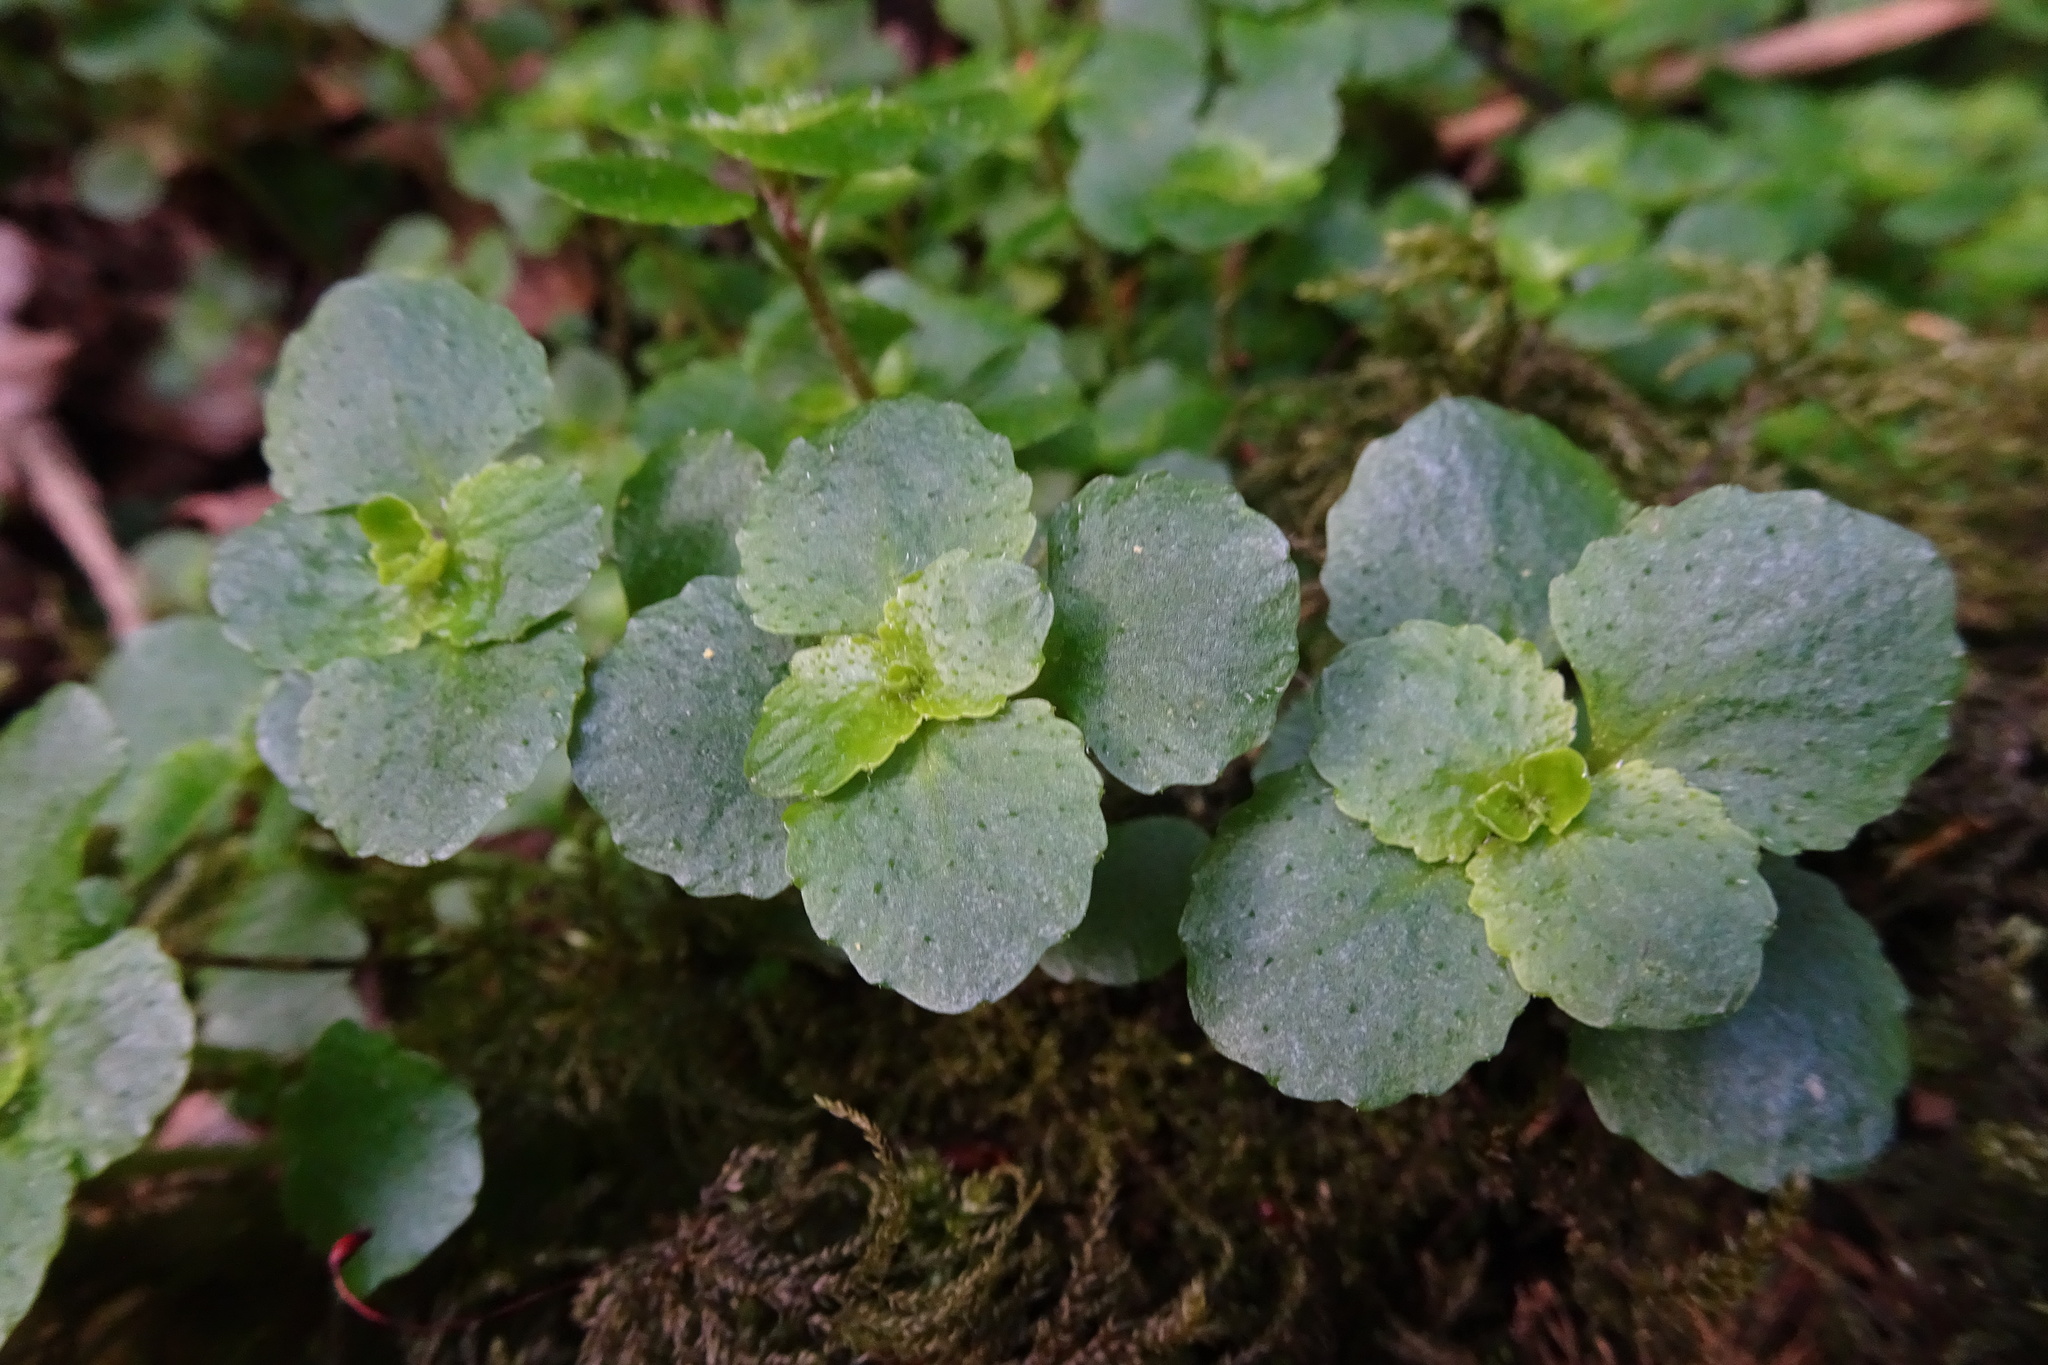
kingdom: Plantae
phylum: Tracheophyta
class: Magnoliopsida
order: Saxifragales
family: Saxifragaceae
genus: Chrysosplenium
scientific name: Chrysosplenium oppositifolium
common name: Opposite-leaved golden-saxifrage
